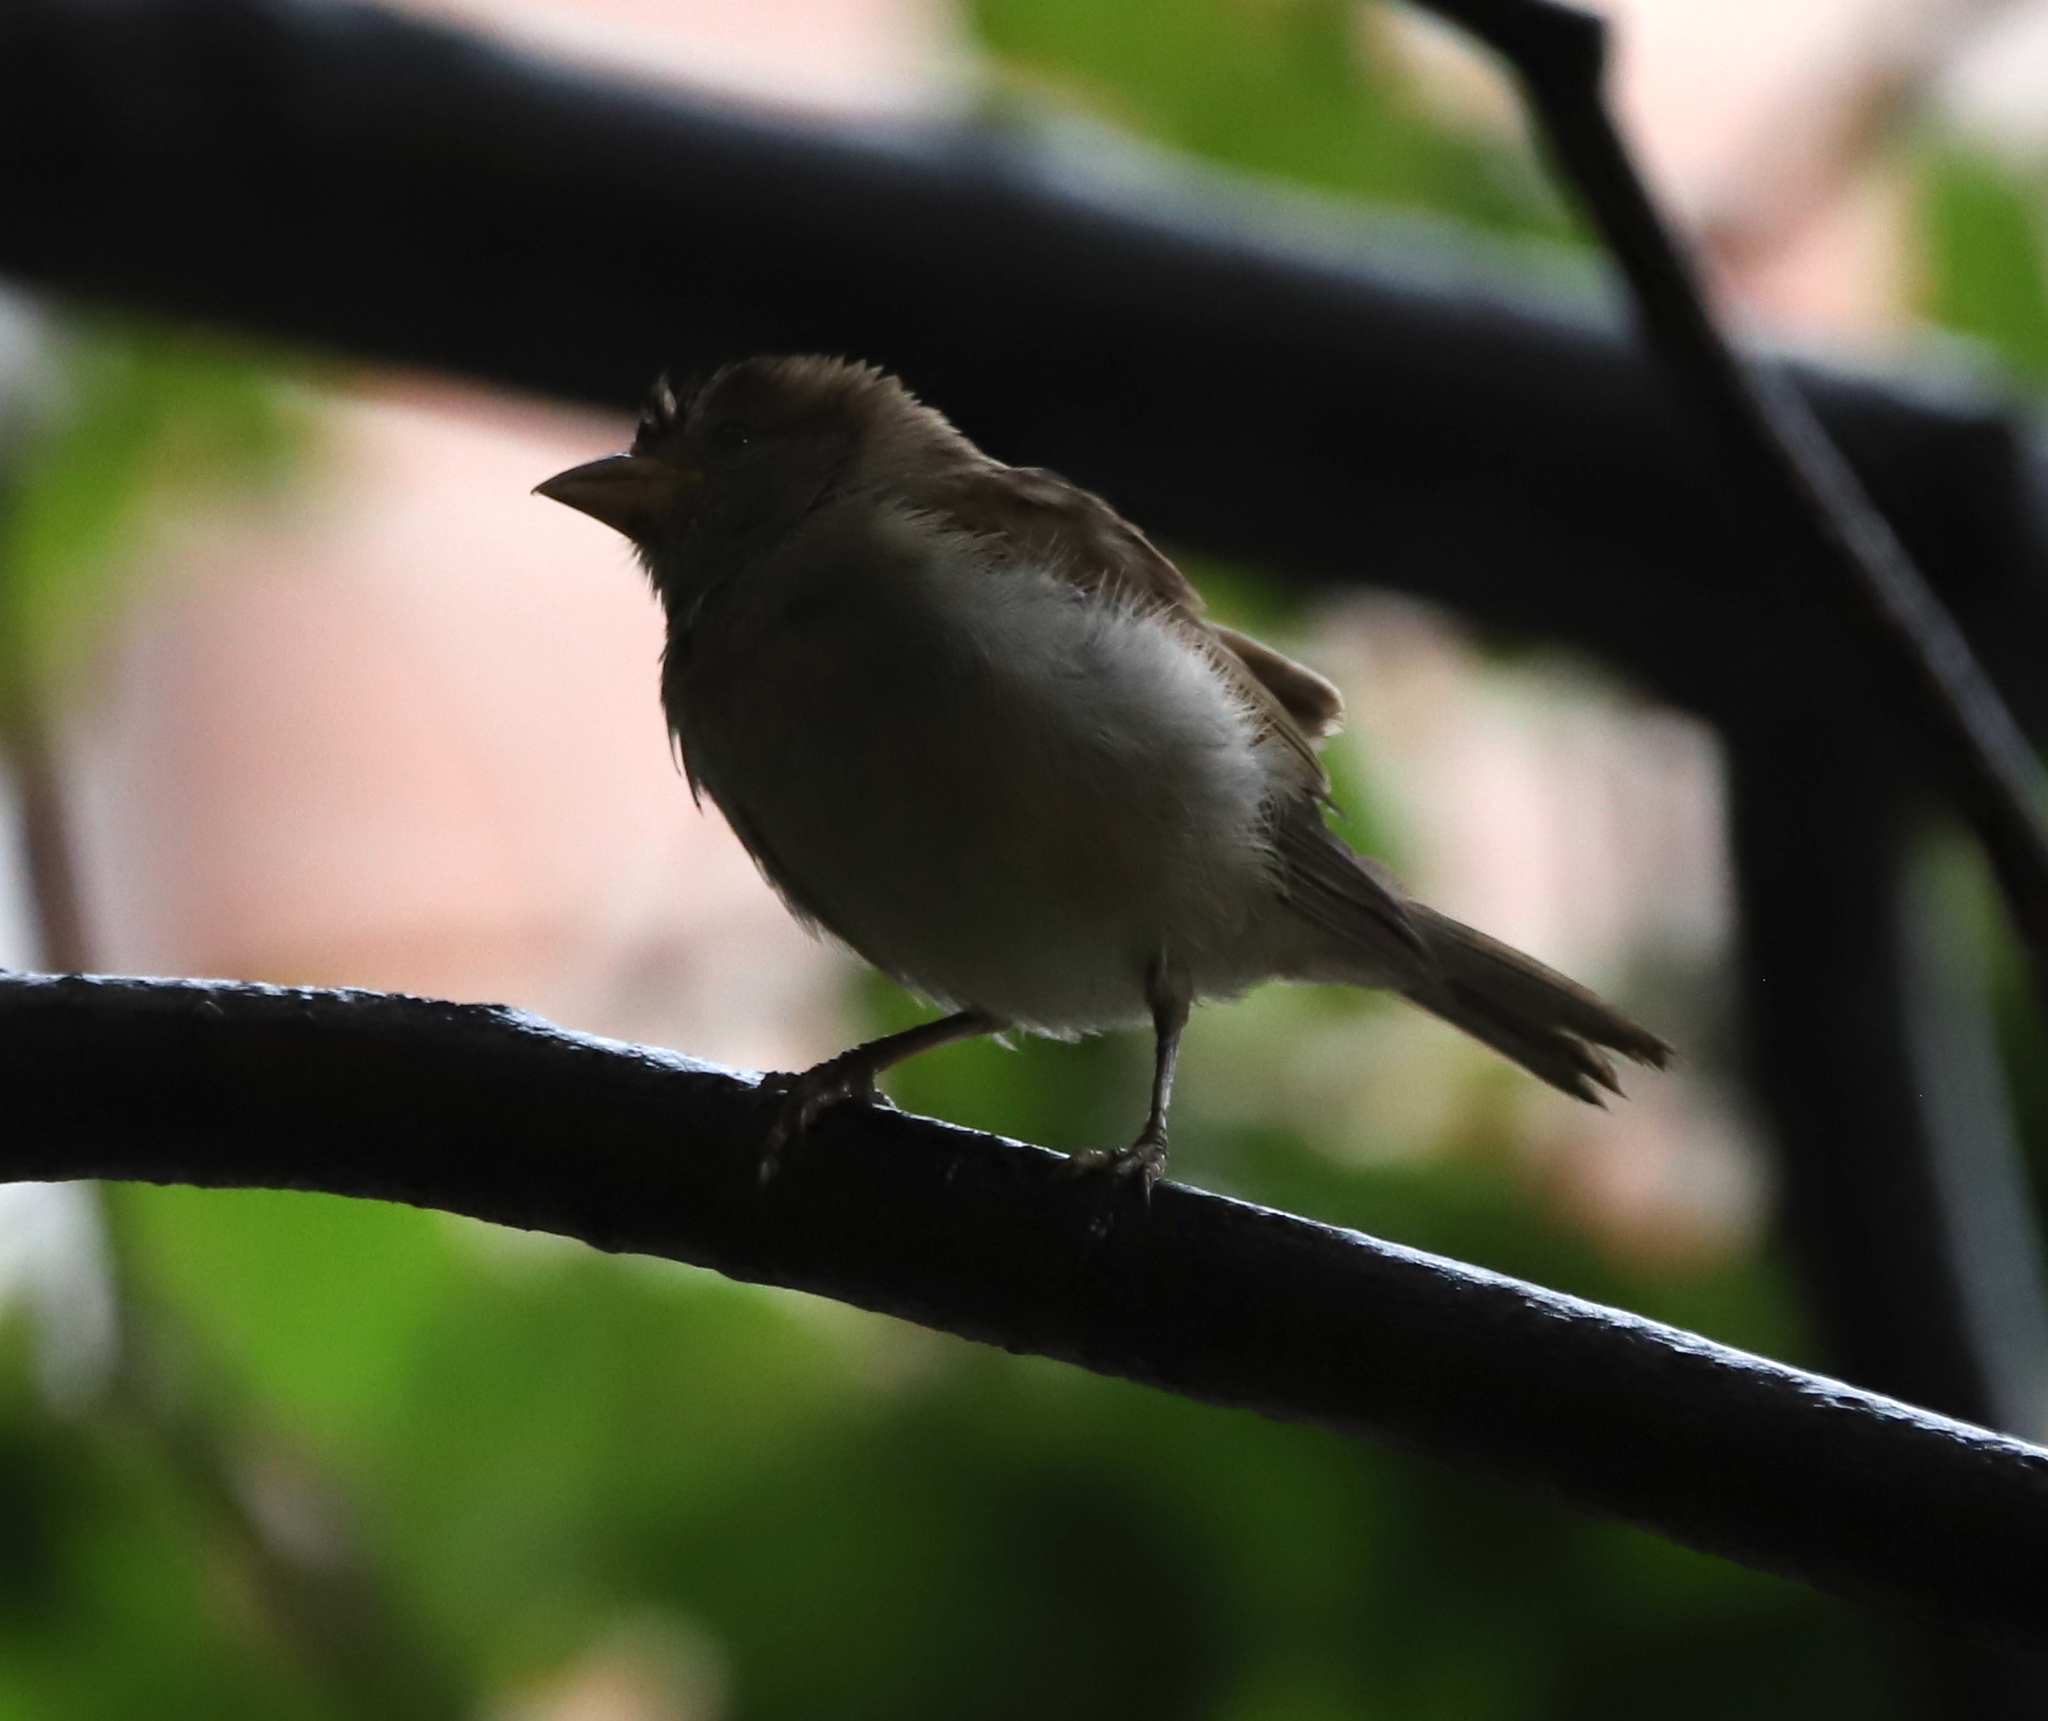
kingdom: Animalia
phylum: Chordata
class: Aves
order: Passeriformes
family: Passeridae
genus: Passer
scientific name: Passer domesticus
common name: House sparrow
